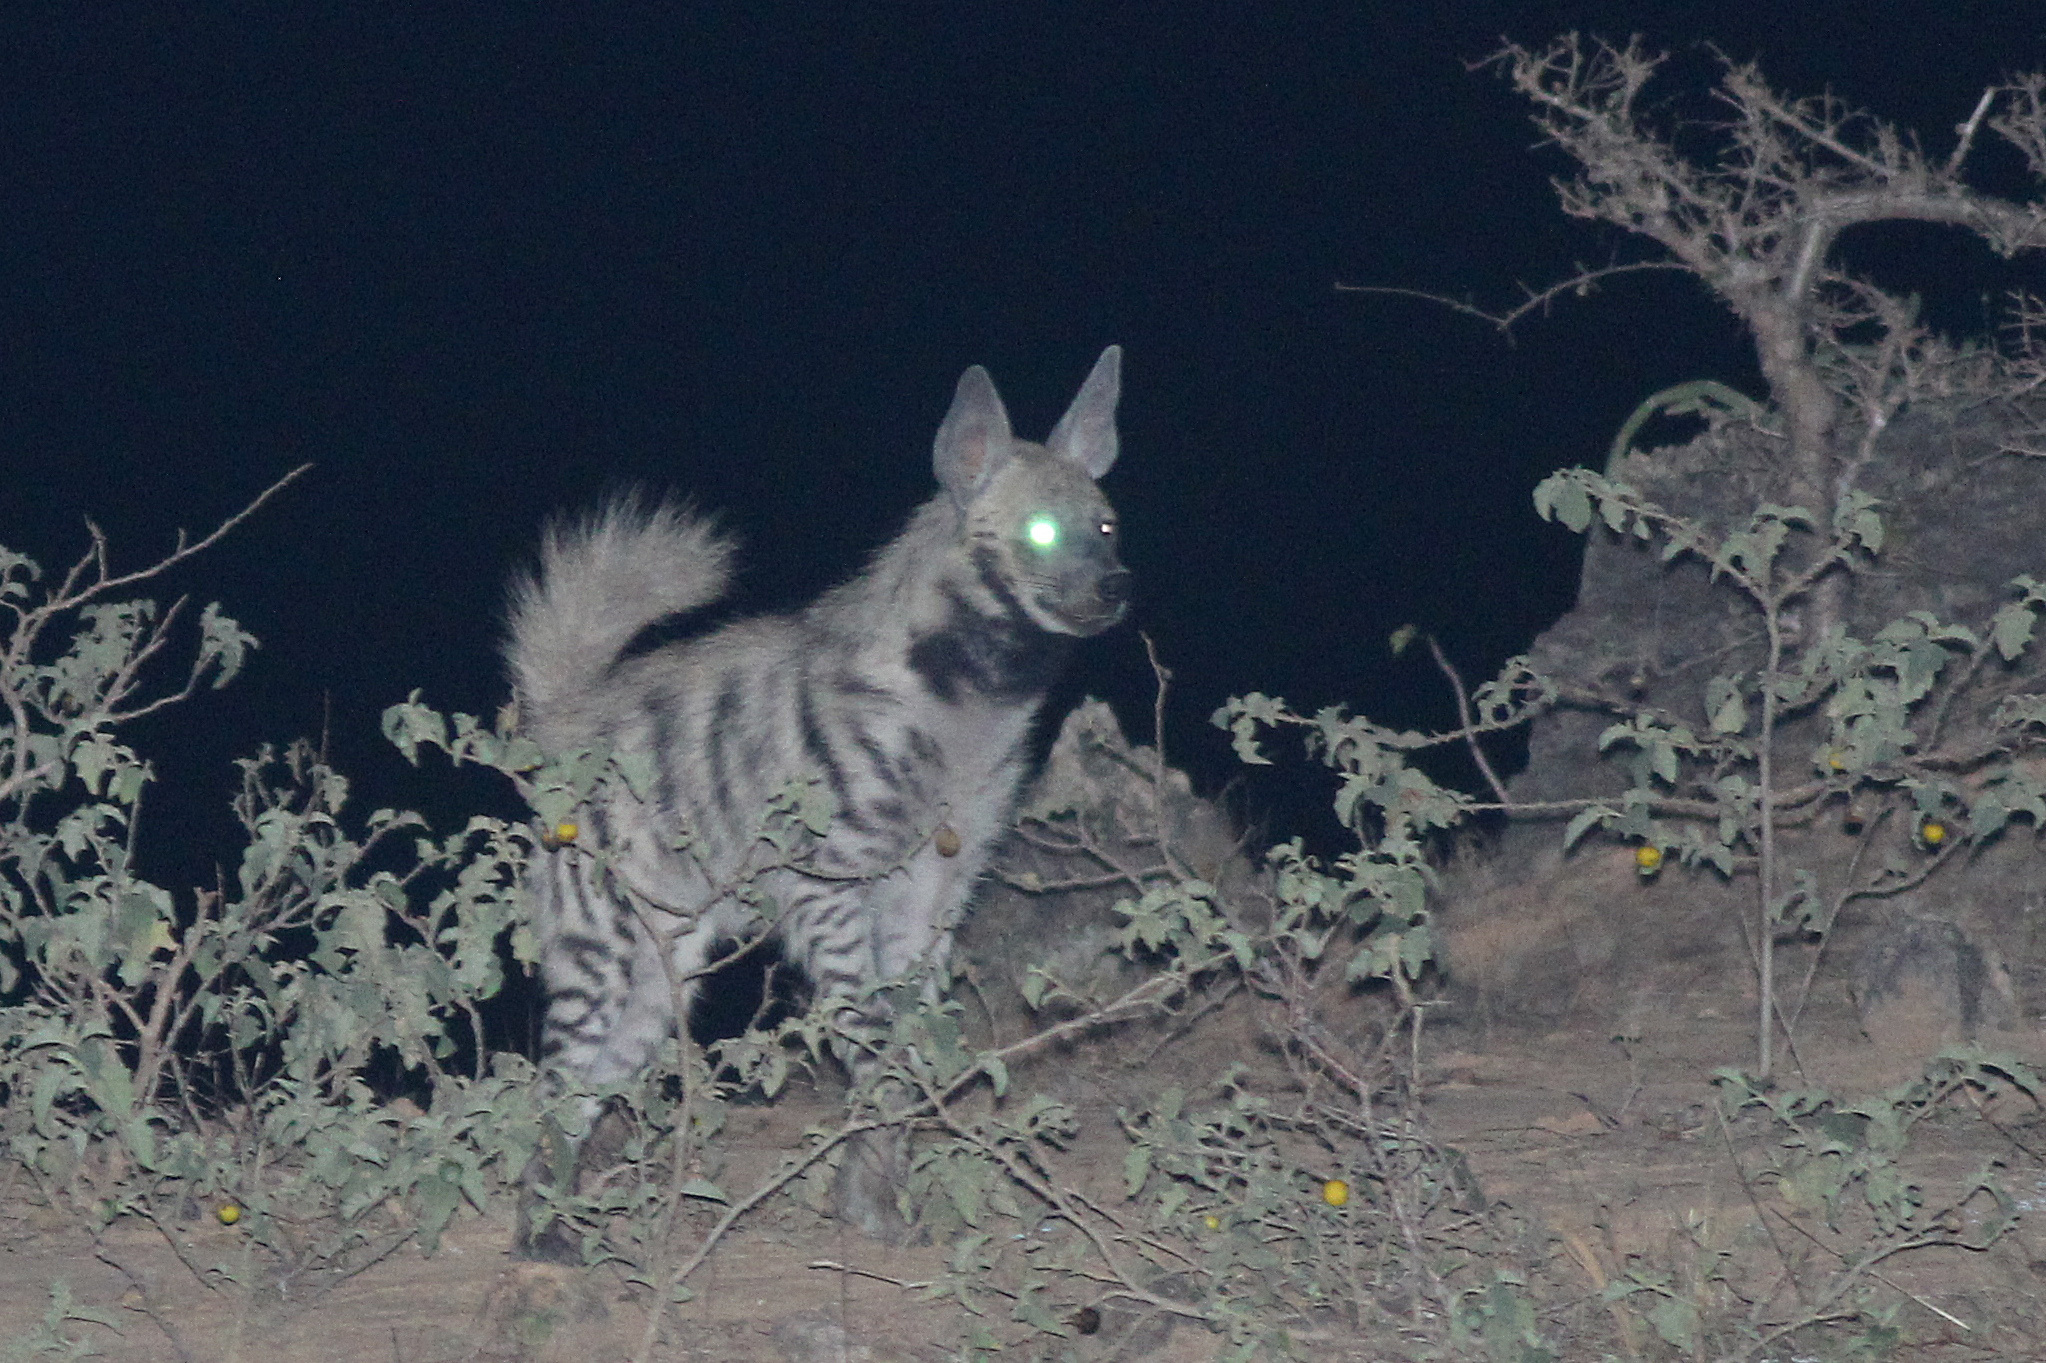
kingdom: Animalia
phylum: Chordata
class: Mammalia
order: Carnivora
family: Hyaenidae
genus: Hyaena
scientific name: Hyaena hyaena
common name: Striped hyaena
